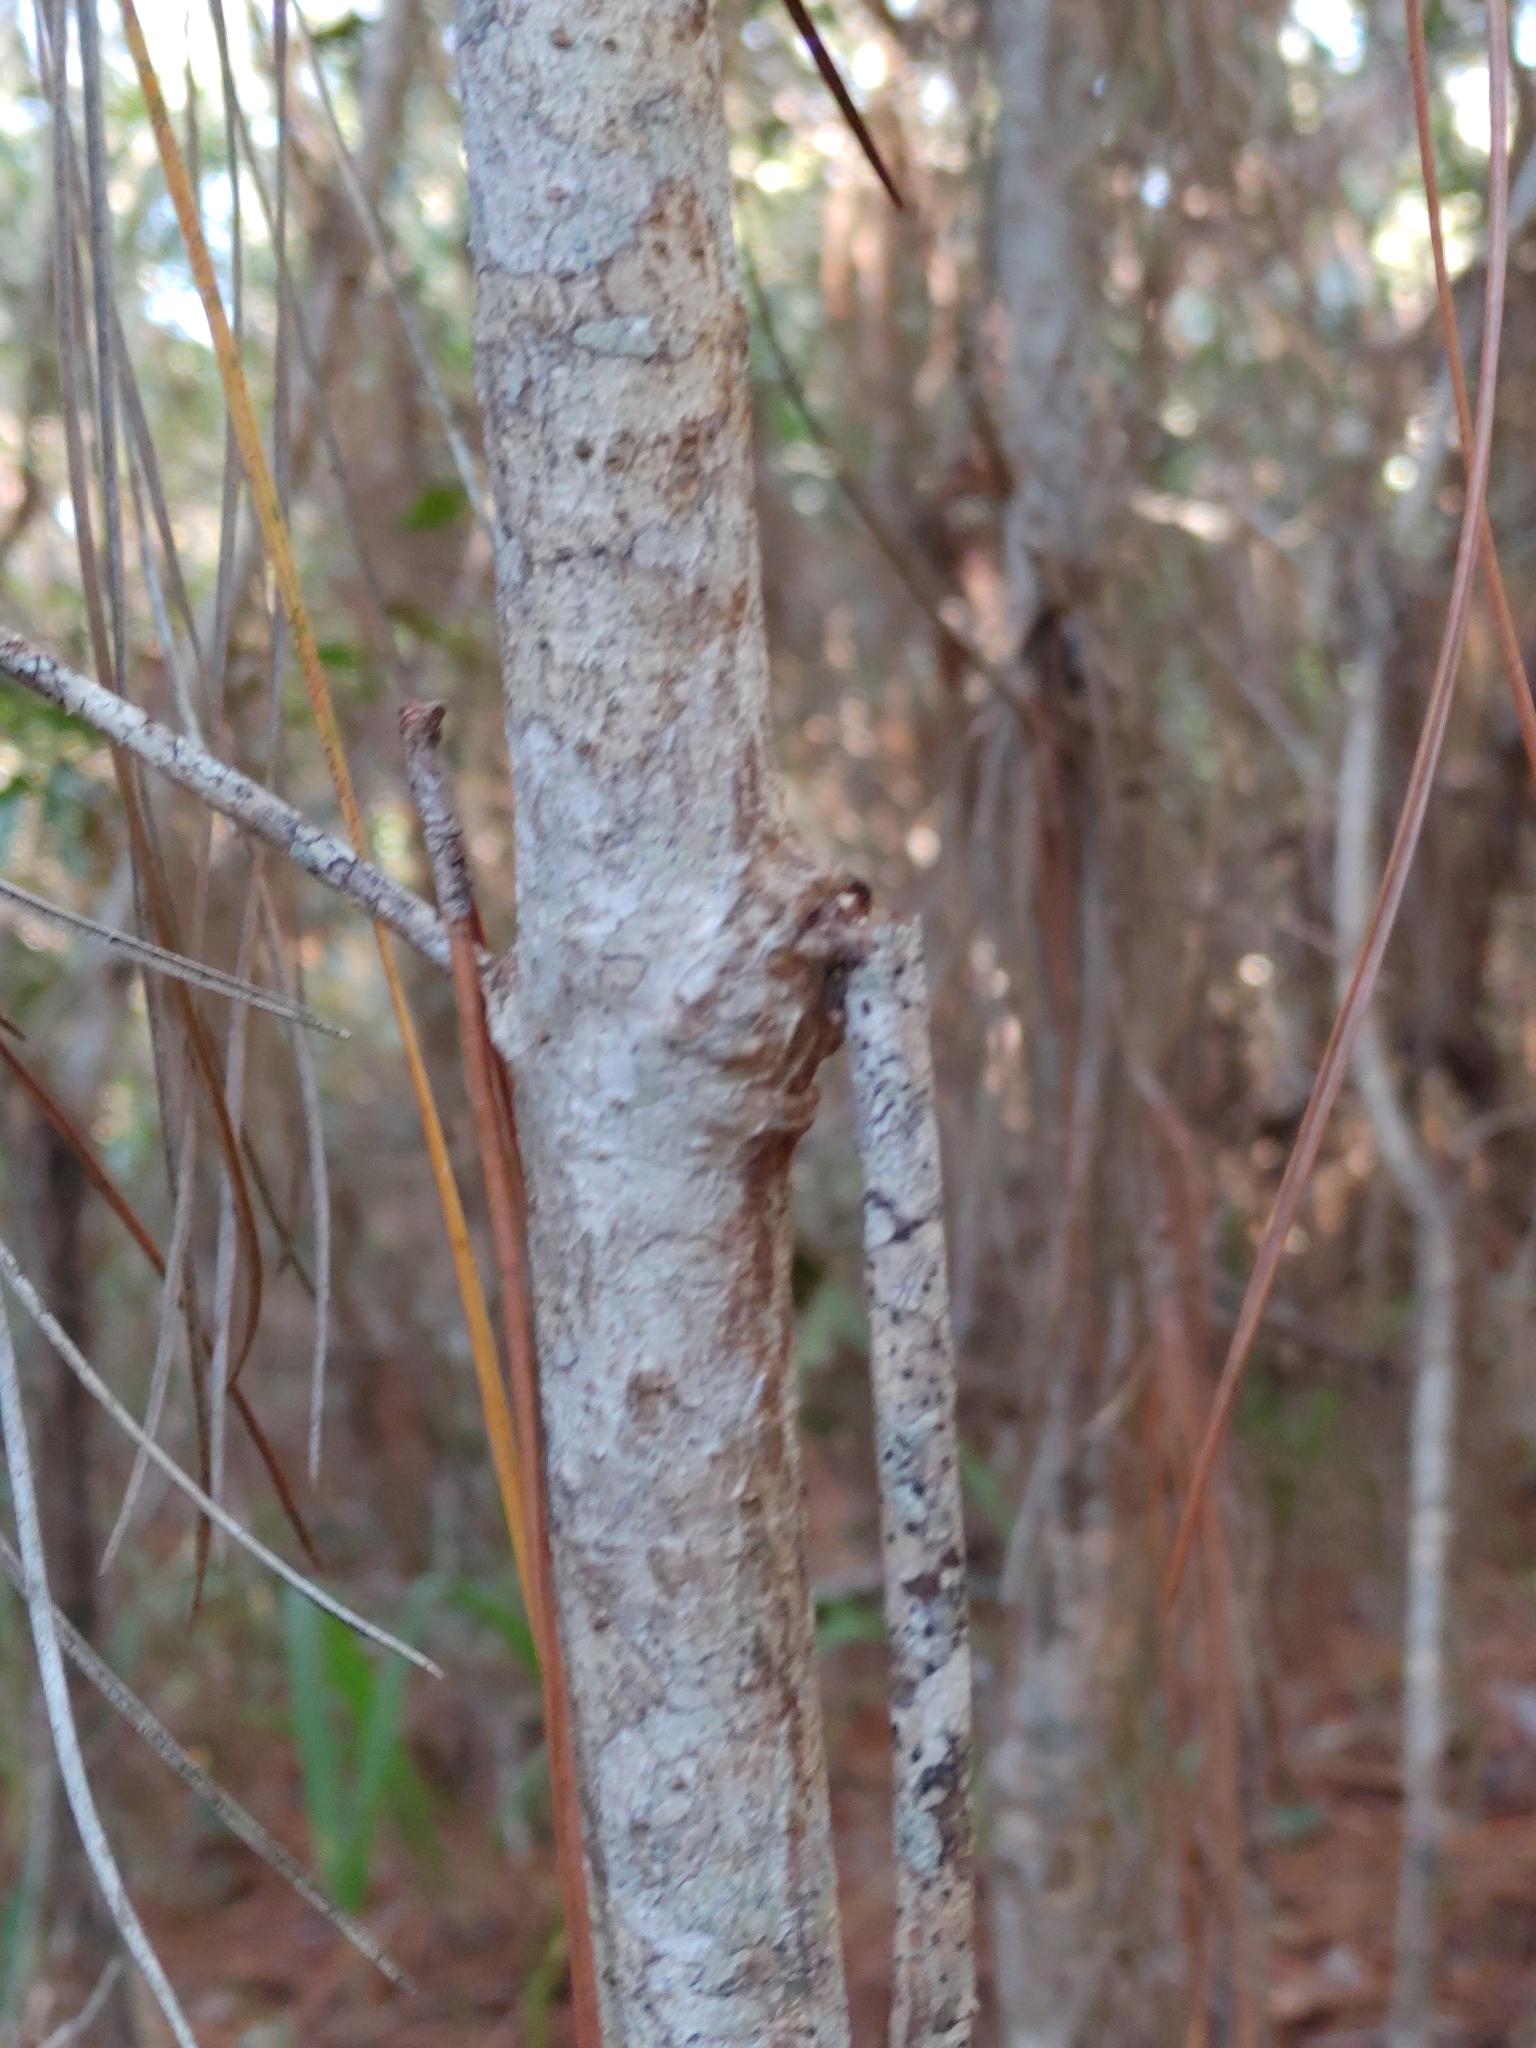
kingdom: Plantae
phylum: Tracheophyta
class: Magnoliopsida
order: Lamiales
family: Oleaceae
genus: Cartrema
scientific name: Cartrema americana
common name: Devilwood
